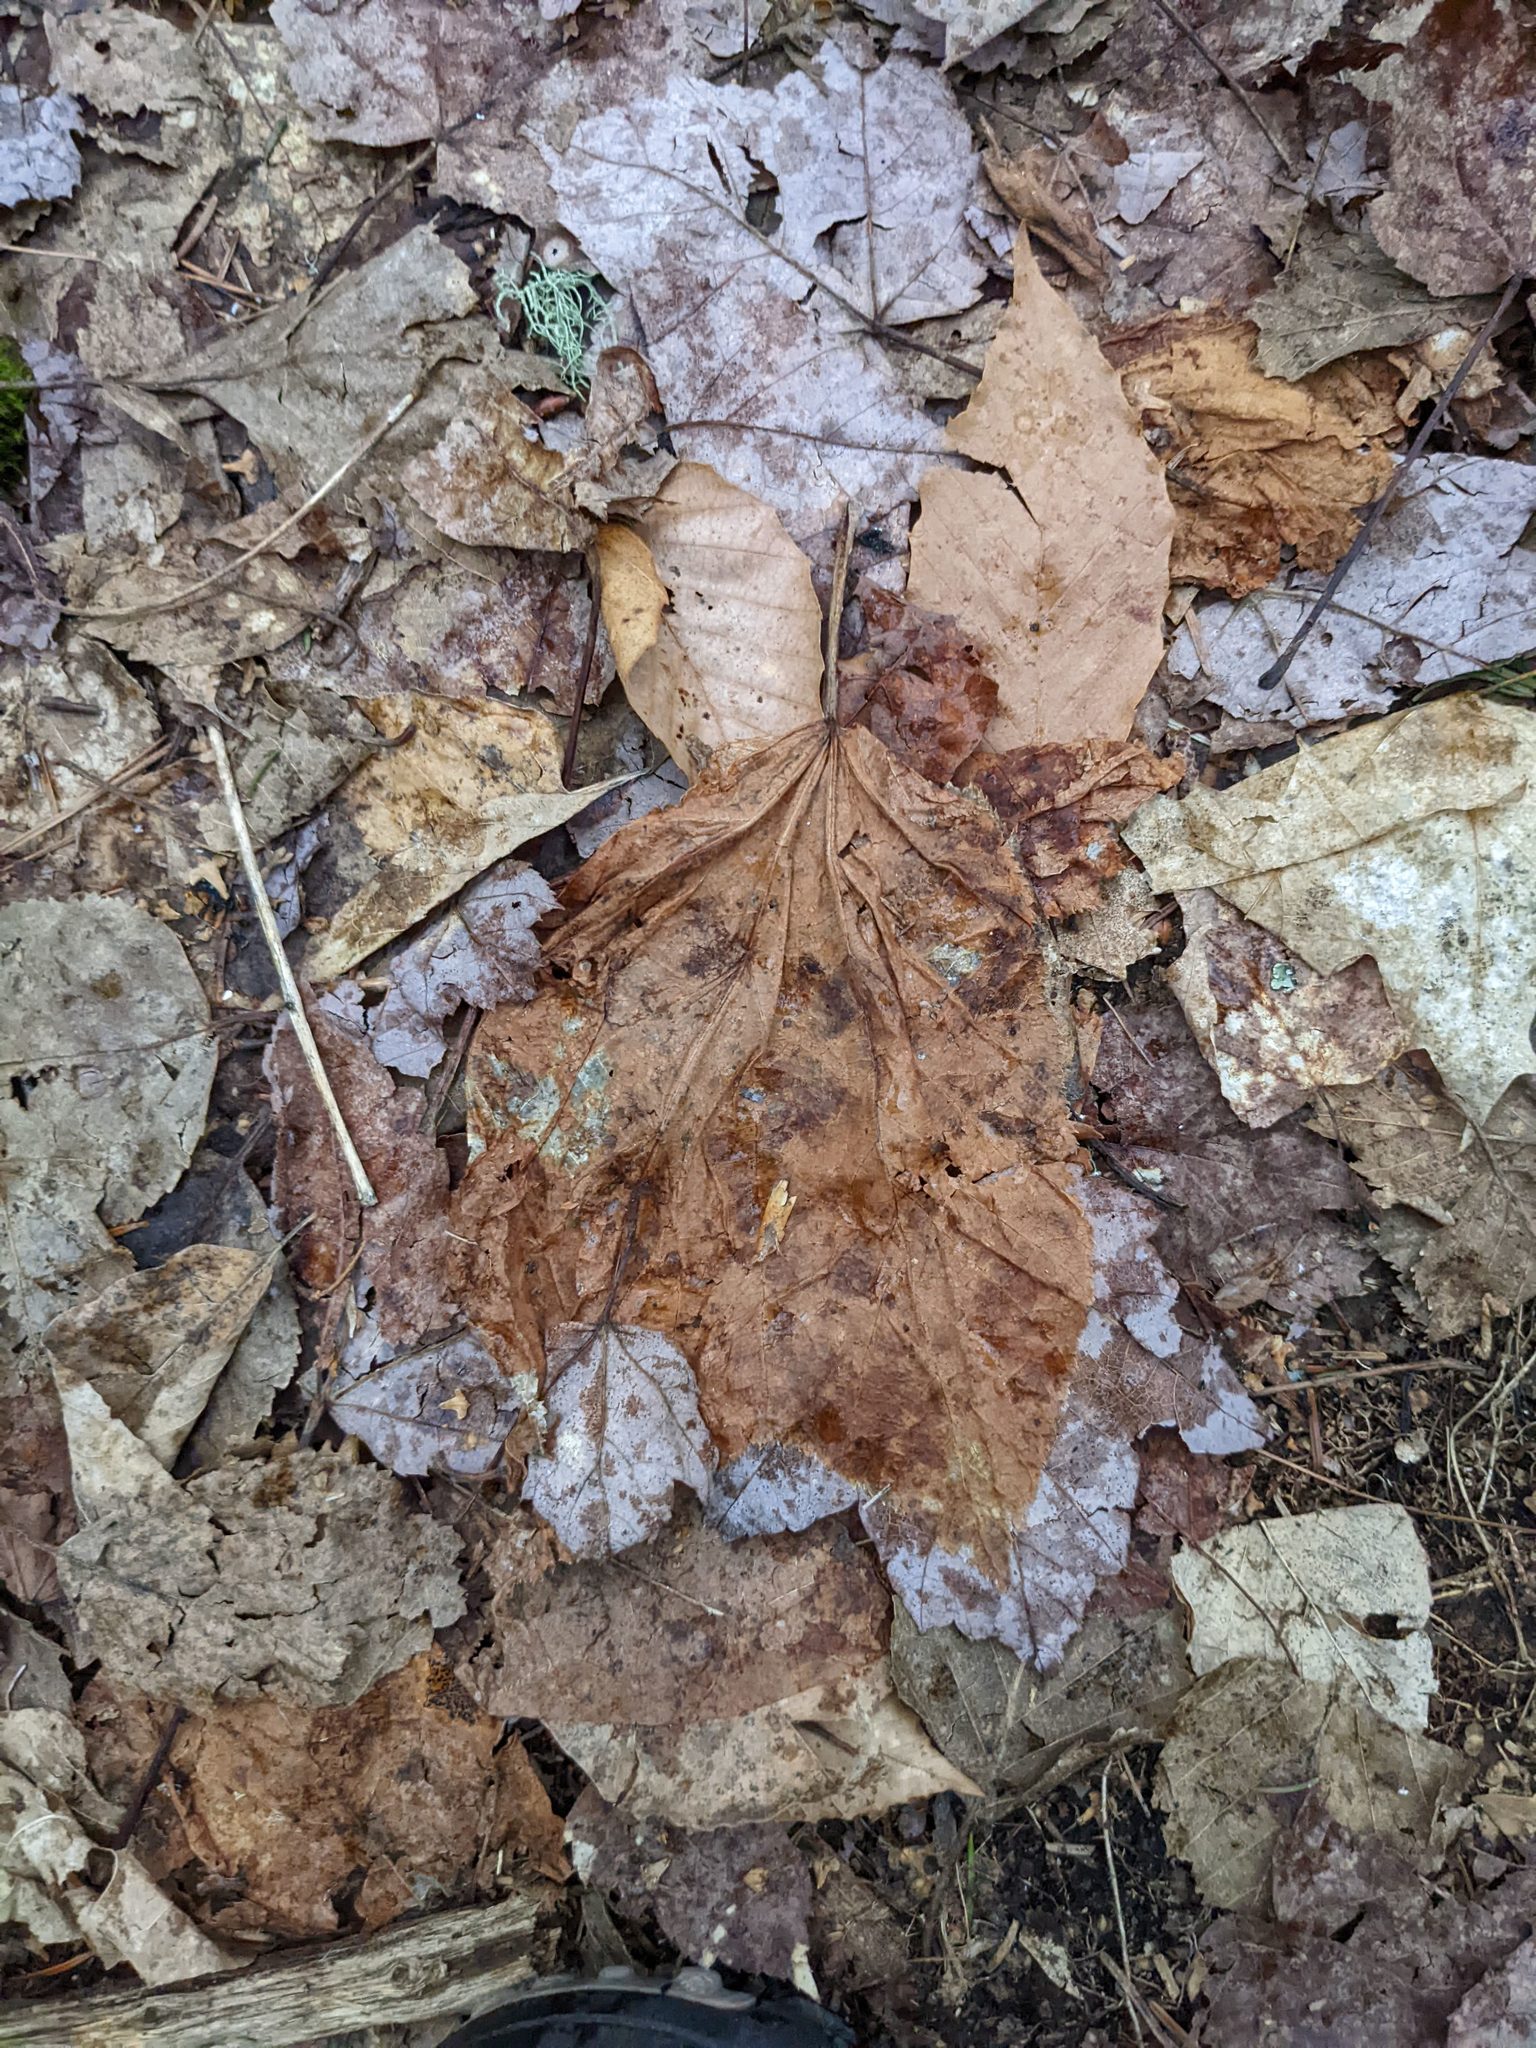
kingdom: Plantae
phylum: Tracheophyta
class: Magnoliopsida
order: Sapindales
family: Sapindaceae
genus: Acer
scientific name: Acer pensylvanicum
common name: Moosewood
